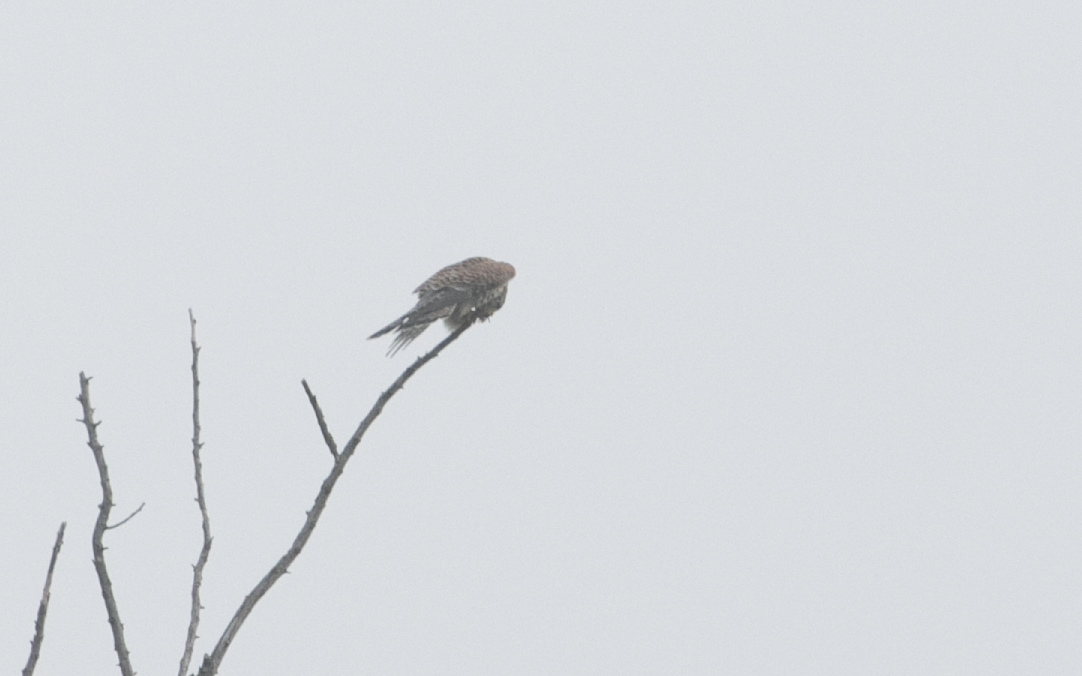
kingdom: Animalia
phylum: Chordata
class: Aves
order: Falconiformes
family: Falconidae
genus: Falco
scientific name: Falco tinnunculus
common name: Common kestrel
